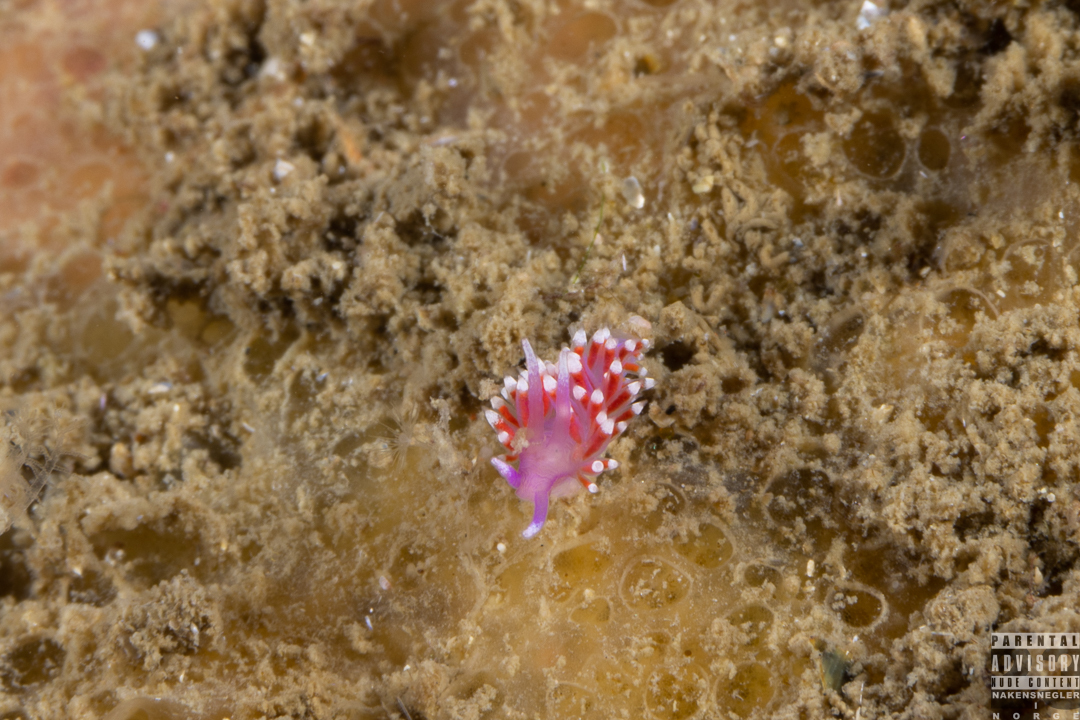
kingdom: Animalia
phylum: Mollusca
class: Gastropoda
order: Nudibranchia
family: Flabellinidae
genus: Edmundsella
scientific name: Edmundsella pedata
